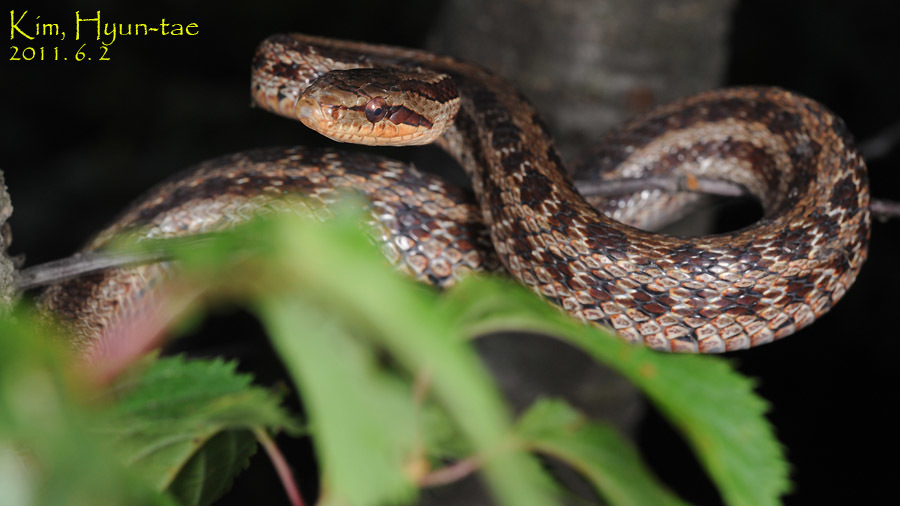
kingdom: Animalia
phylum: Chordata
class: Squamata
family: Colubridae
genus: Elaphe
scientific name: Elaphe dione
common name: Dione ratsnake
